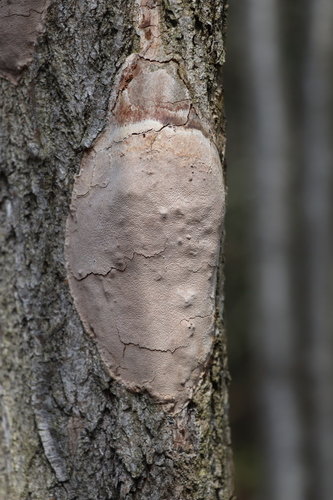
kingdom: Fungi
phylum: Basidiomycota
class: Agaricomycetes
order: Hymenochaetales
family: Hymenochaetaceae
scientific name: Hymenochaetaceae
